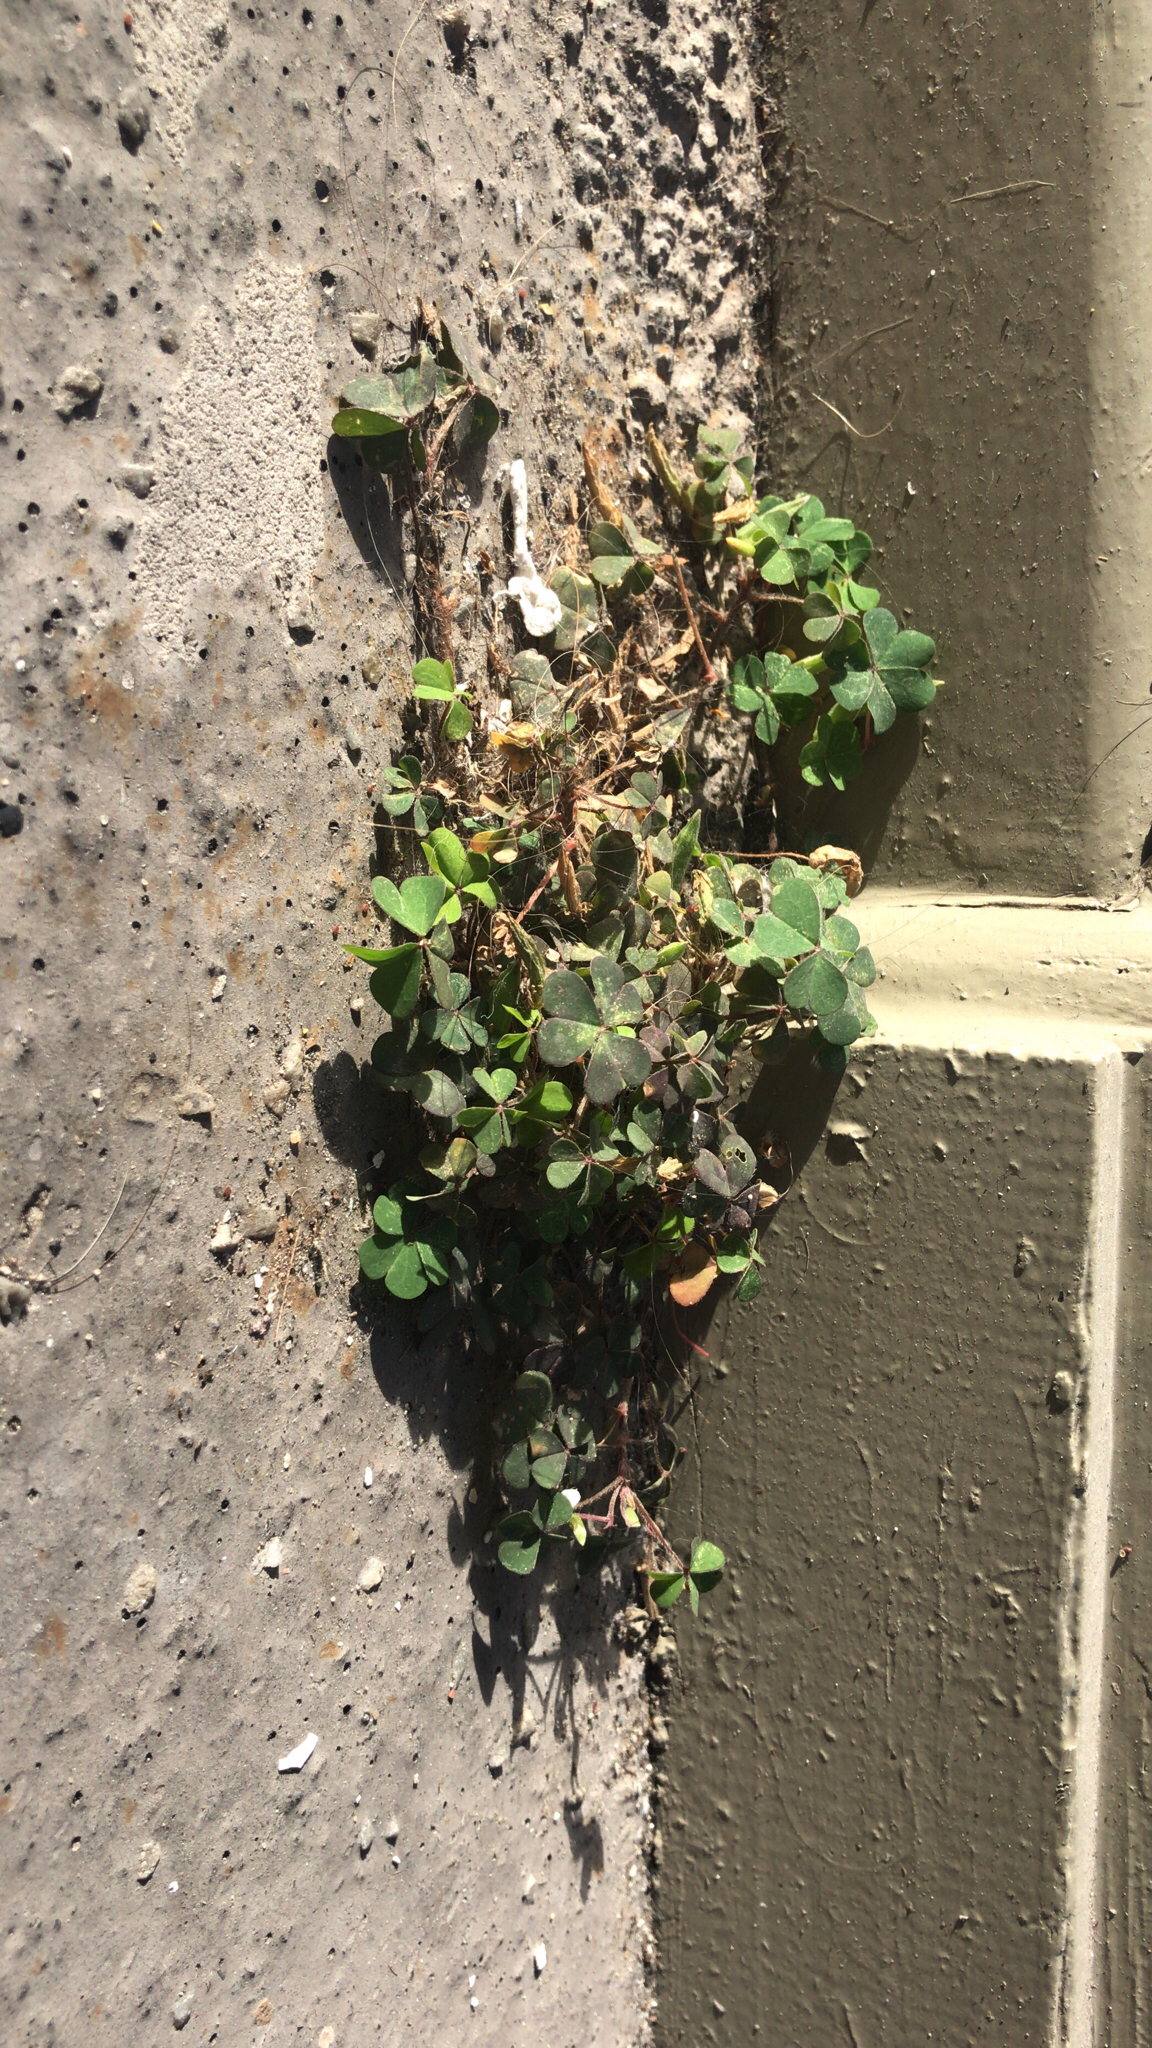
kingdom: Plantae
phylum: Tracheophyta
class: Magnoliopsida
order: Oxalidales
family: Oxalidaceae
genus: Oxalis
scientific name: Oxalis corniculata
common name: Procumbent yellow-sorrel
